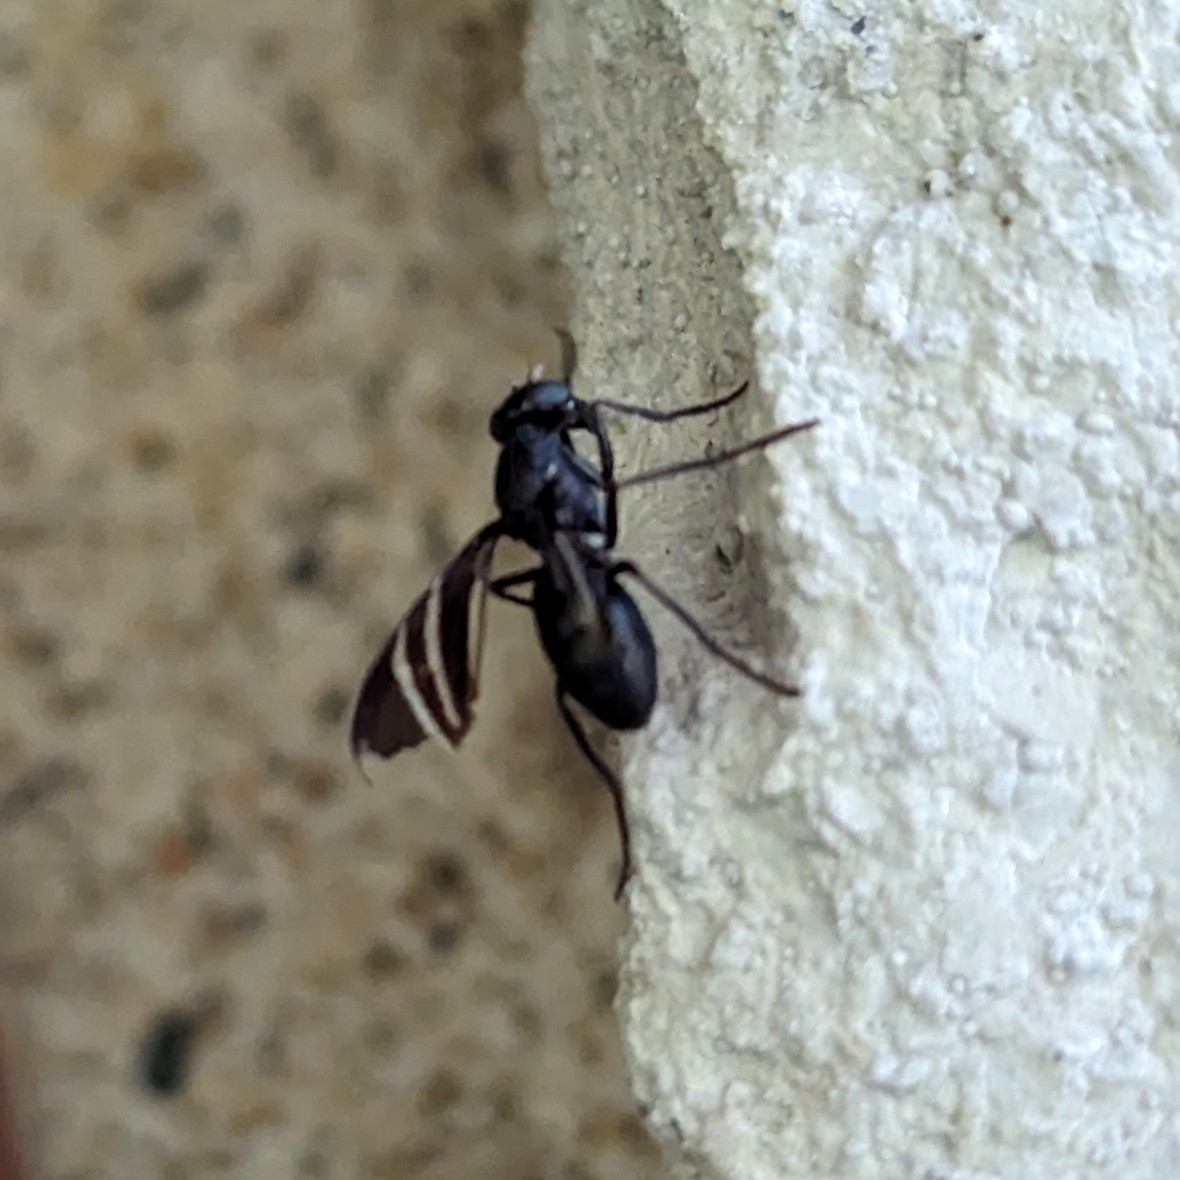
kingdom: Animalia
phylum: Arthropoda
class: Insecta
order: Diptera
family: Ulidiidae
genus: Tritoxa
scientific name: Tritoxa flexa
